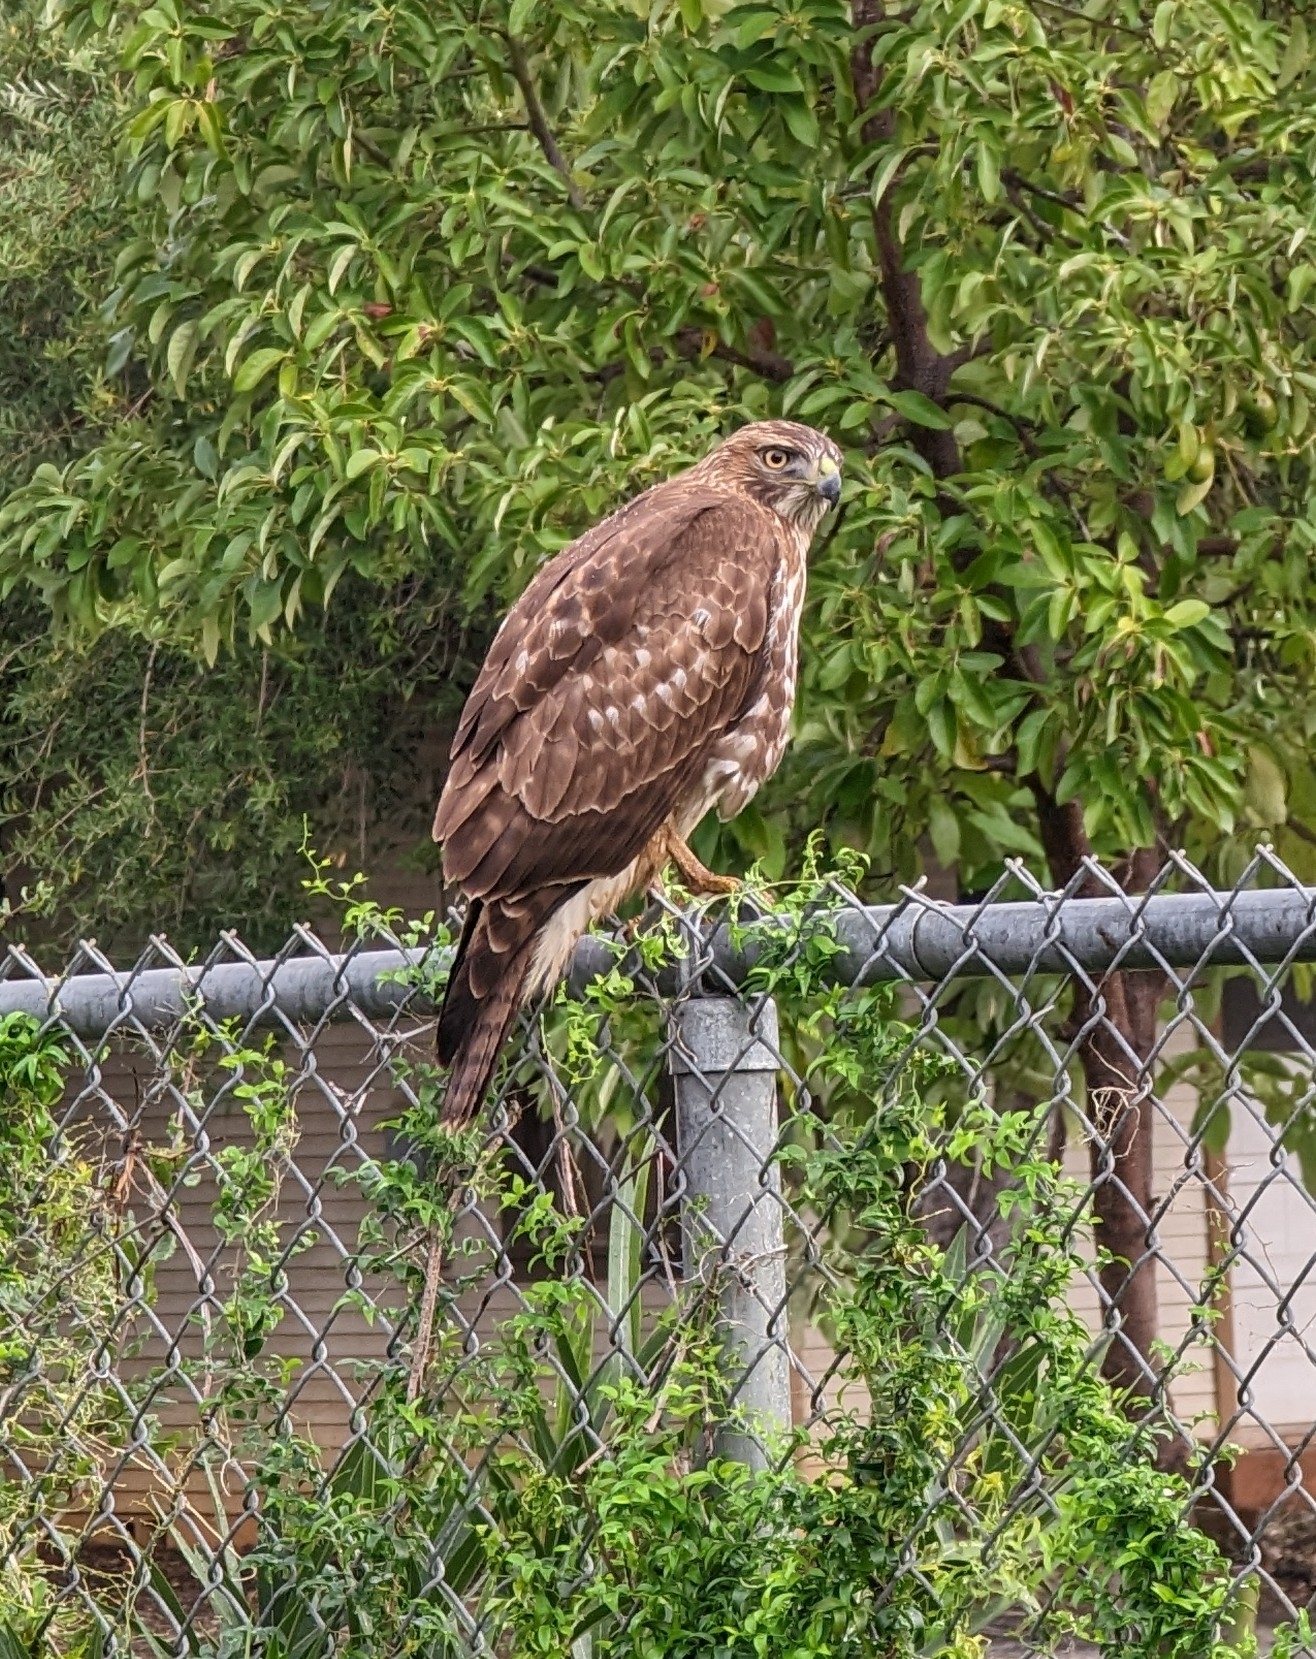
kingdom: Animalia
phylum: Chordata
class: Aves
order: Accipitriformes
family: Accipitridae
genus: Buteo
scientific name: Buteo jamaicensis
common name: Red-tailed hawk
